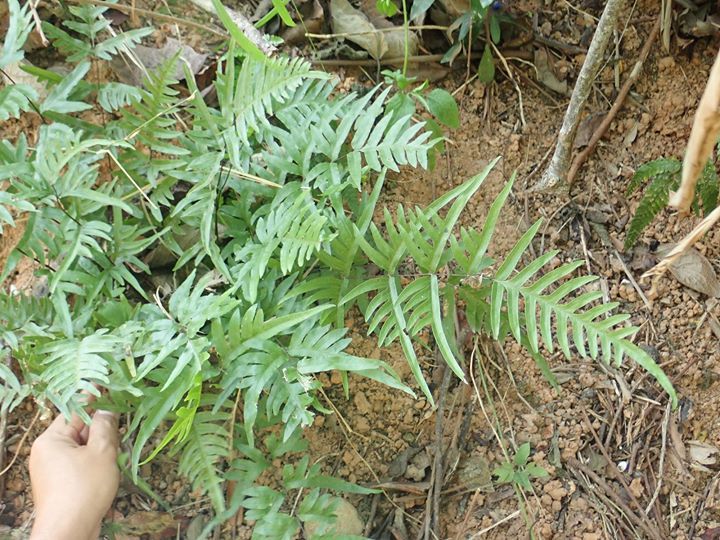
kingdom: Plantae
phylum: Tracheophyta
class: Polypodiopsida
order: Polypodiales
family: Pteridaceae
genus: Pteris
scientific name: Pteris semipinnata
